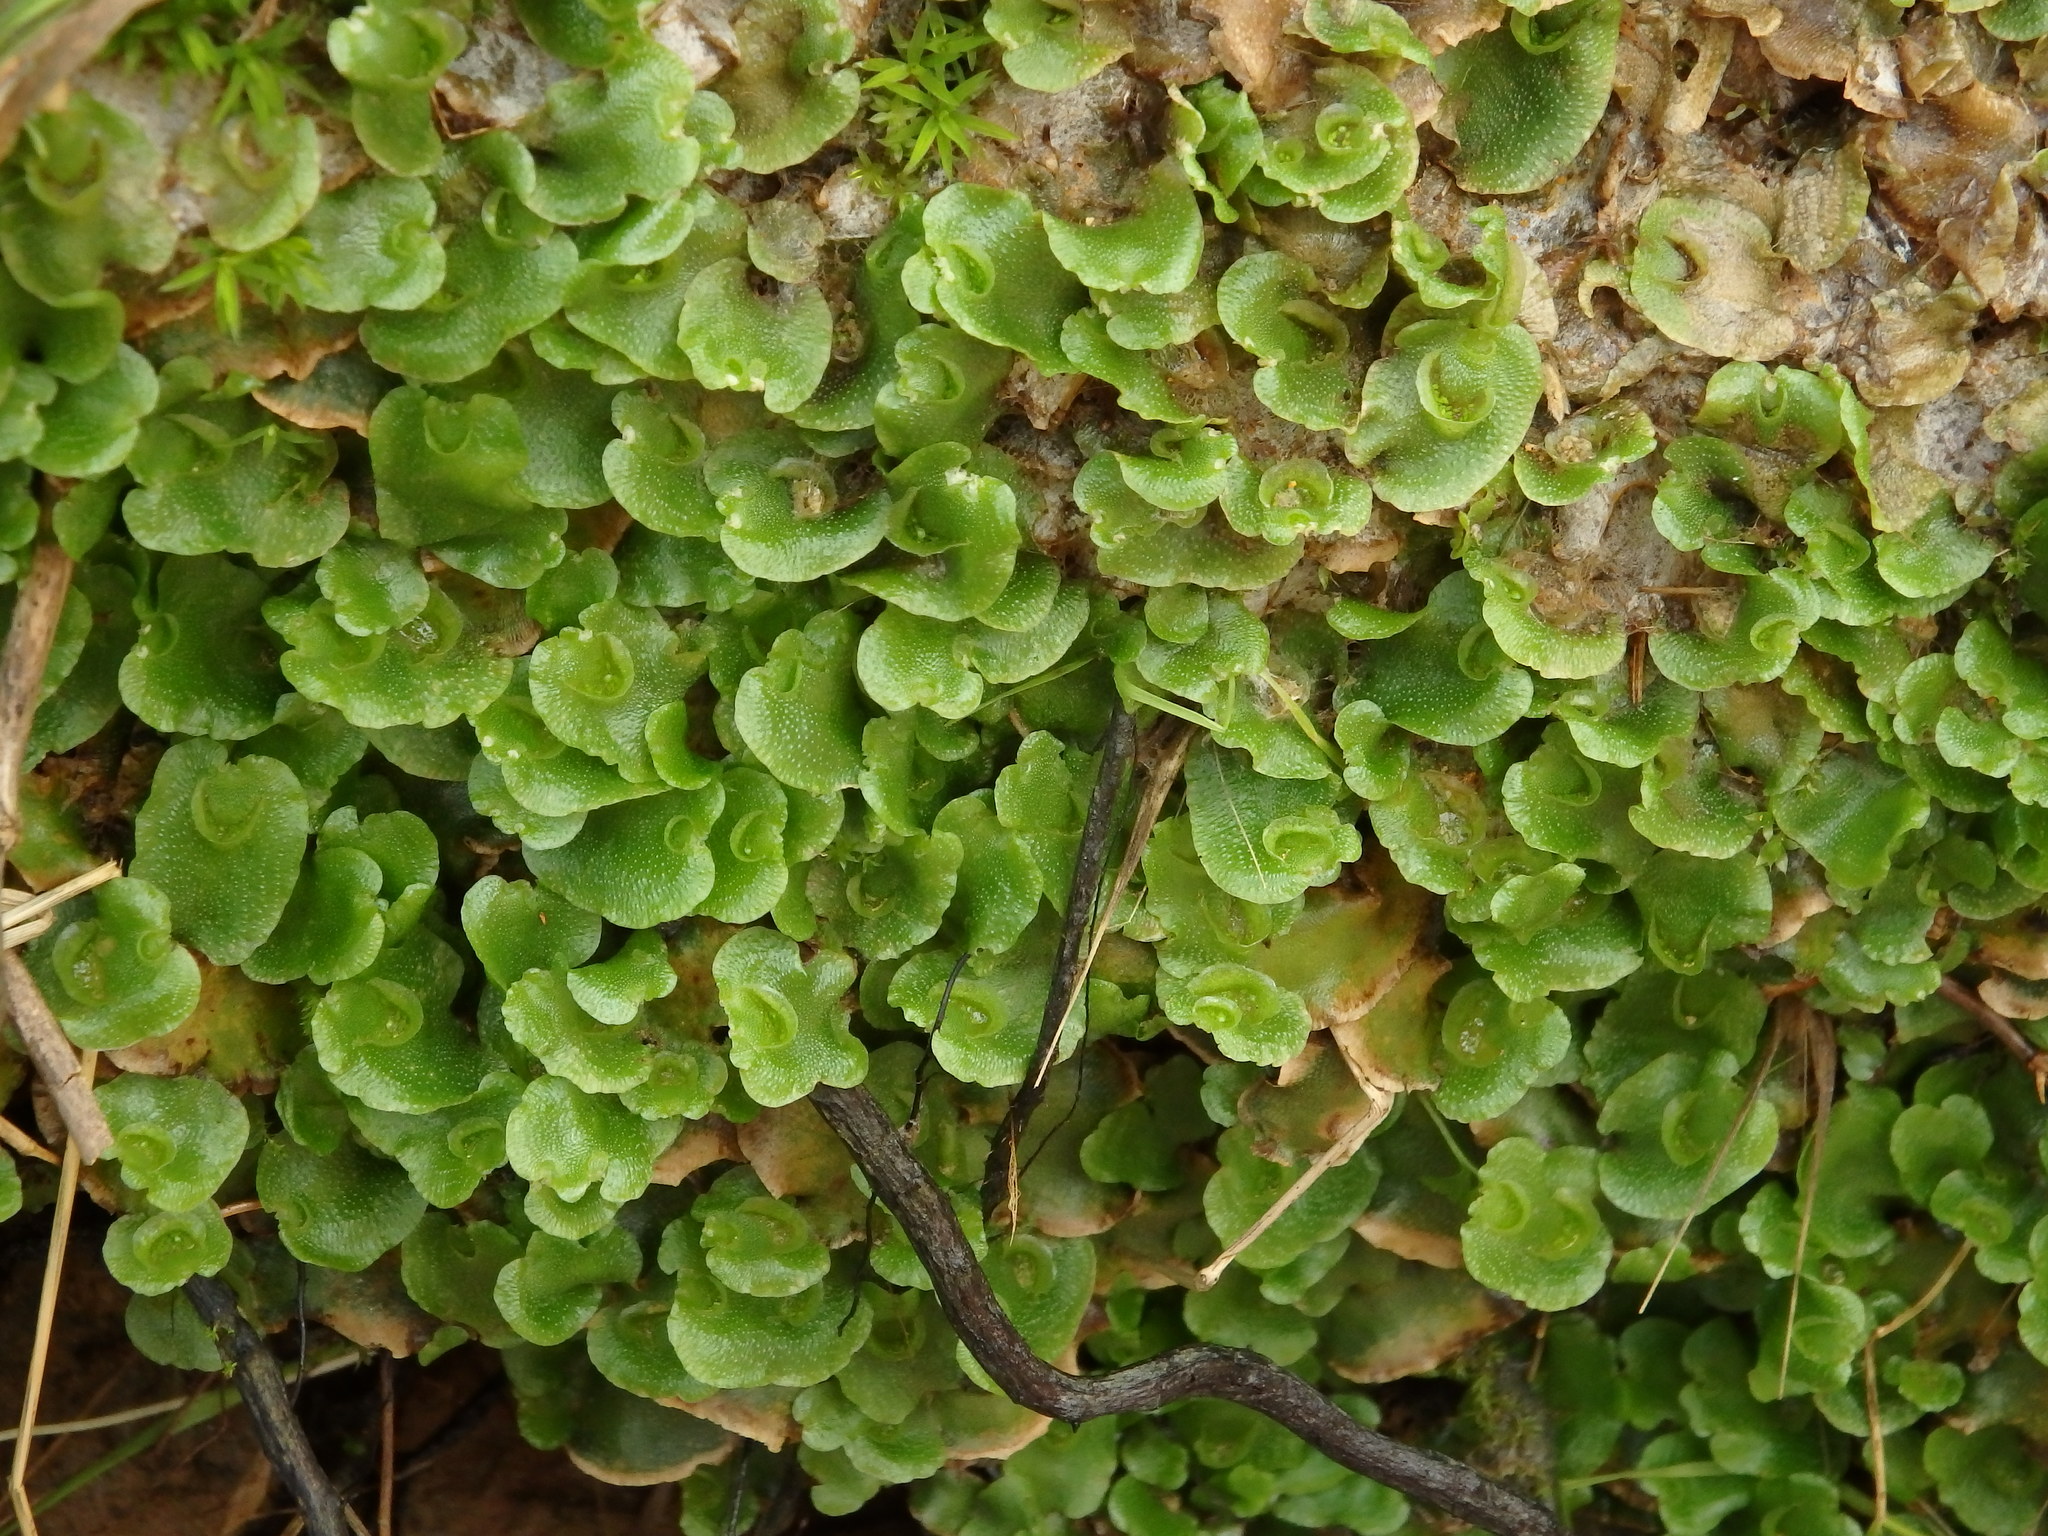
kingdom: Plantae
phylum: Marchantiophyta
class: Marchantiopsida
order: Lunulariales
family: Lunulariaceae
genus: Lunularia
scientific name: Lunularia cruciata
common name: Crescent-cup liverwort
